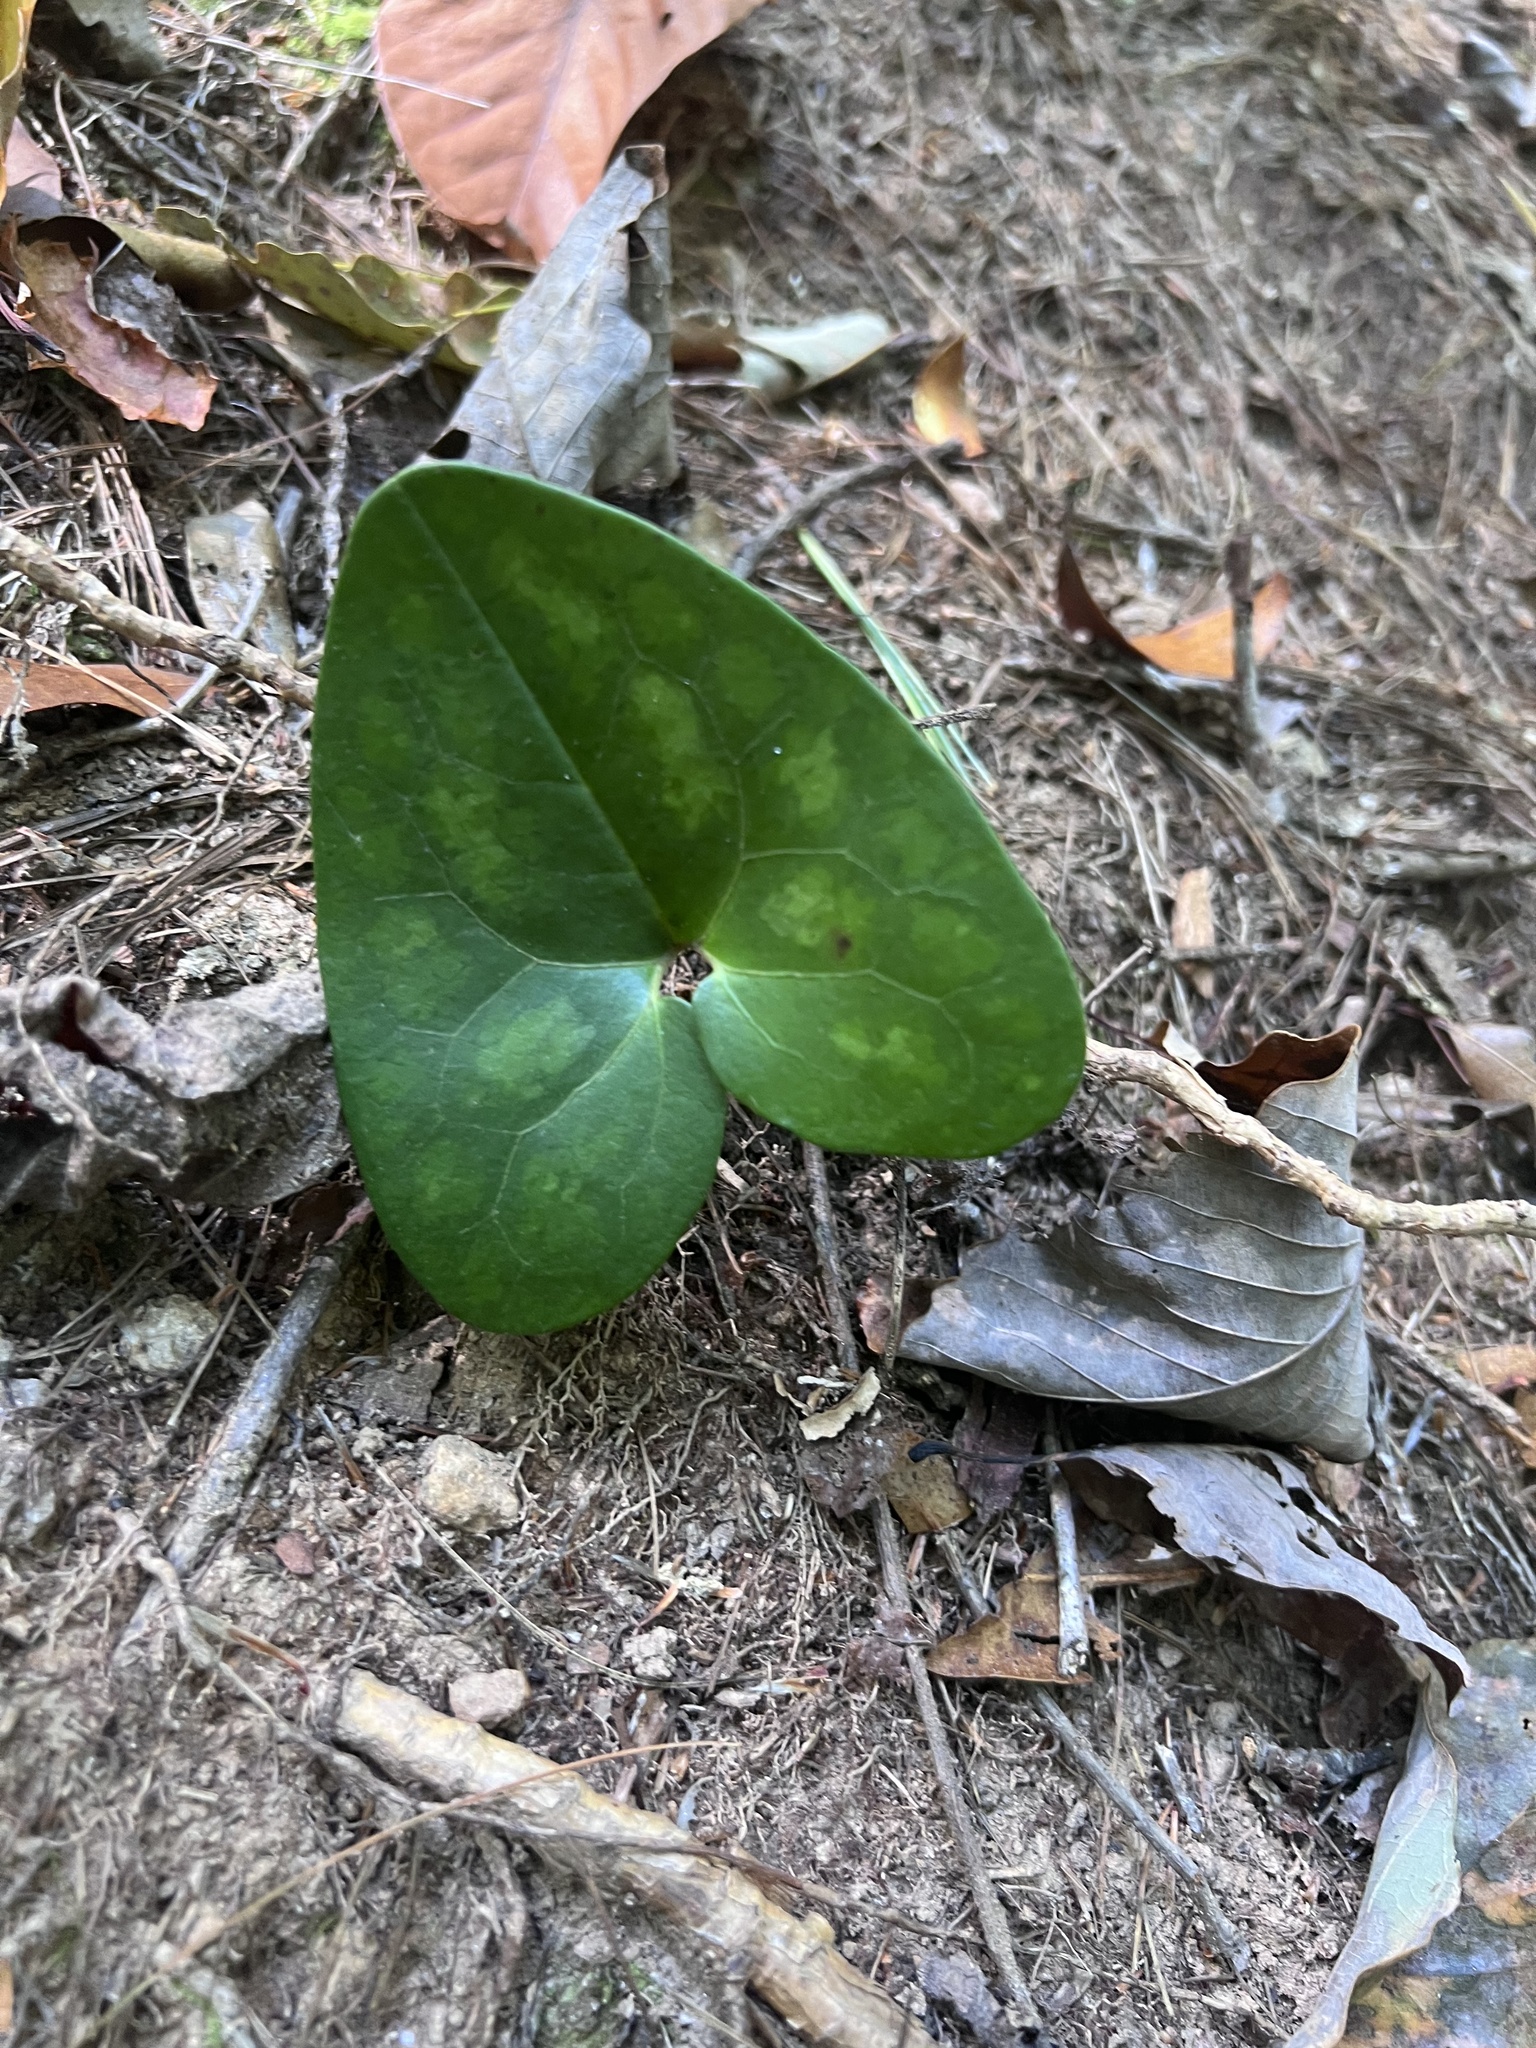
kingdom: Plantae
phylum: Tracheophyta
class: Magnoliopsida
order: Piperales
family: Aristolochiaceae
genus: Hexastylis
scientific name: Hexastylis arifolia
